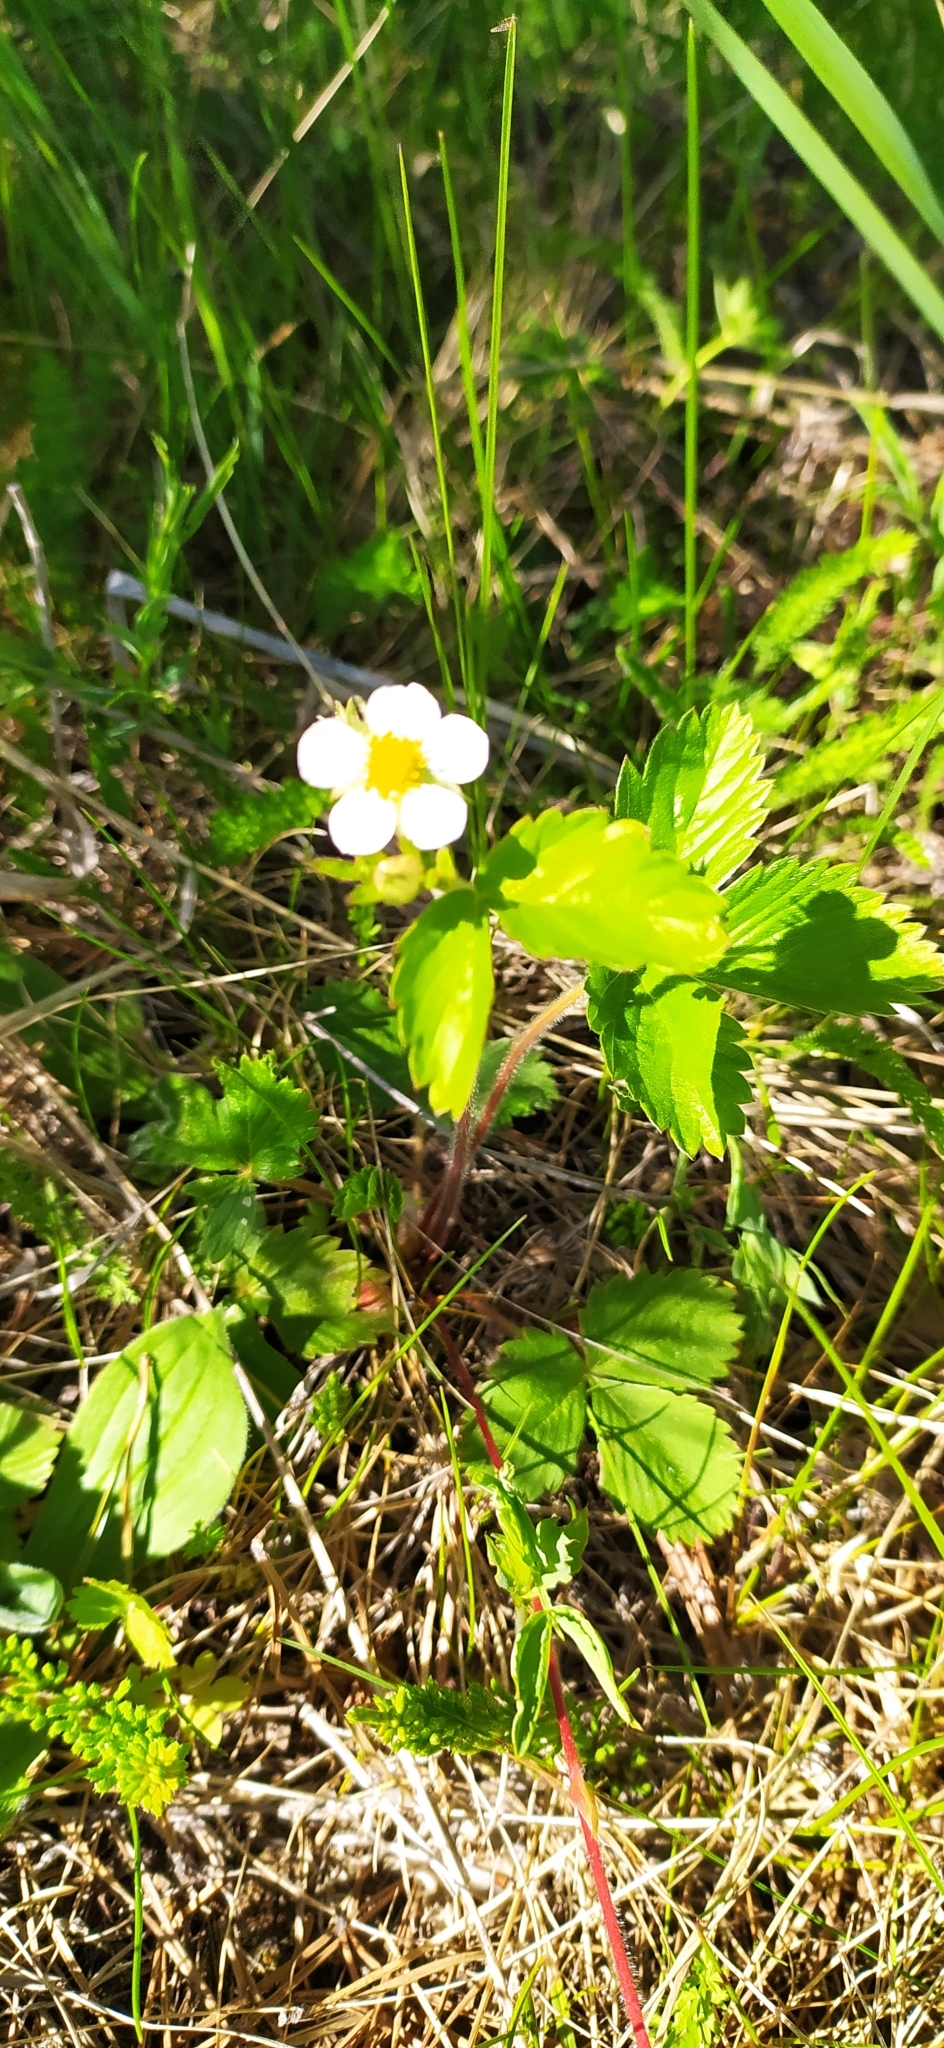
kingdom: Plantae
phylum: Tracheophyta
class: Magnoliopsida
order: Rosales
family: Rosaceae
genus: Fragaria
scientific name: Fragaria vesca
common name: Wild strawberry
